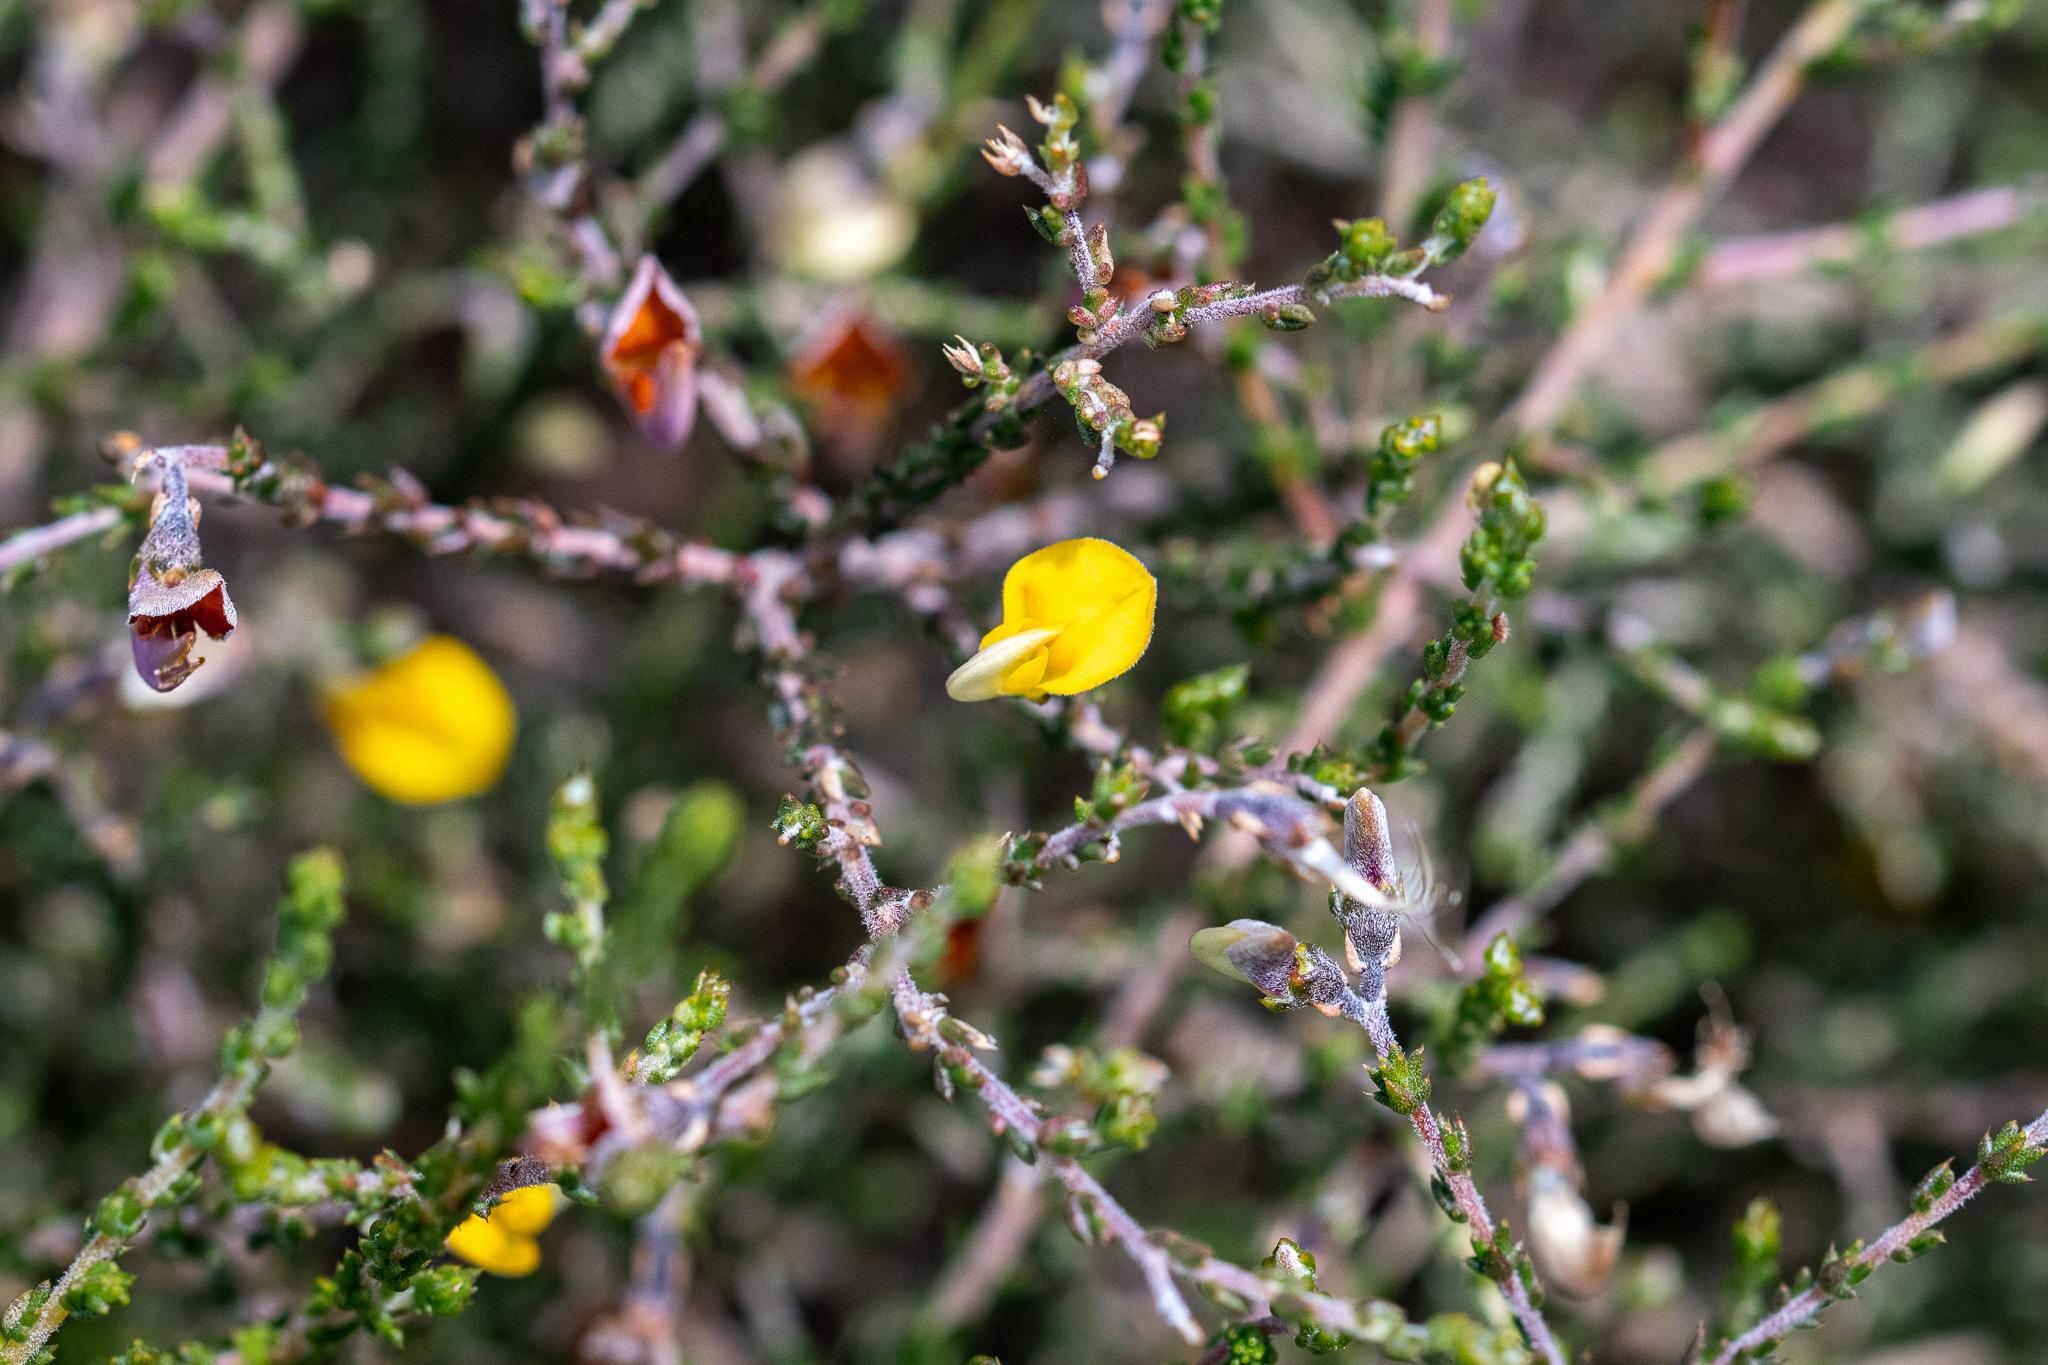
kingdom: Plantae
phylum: Tracheophyta
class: Magnoliopsida
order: Fabales
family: Fabaceae
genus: Aspalathus
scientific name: Aspalathus divaricata
